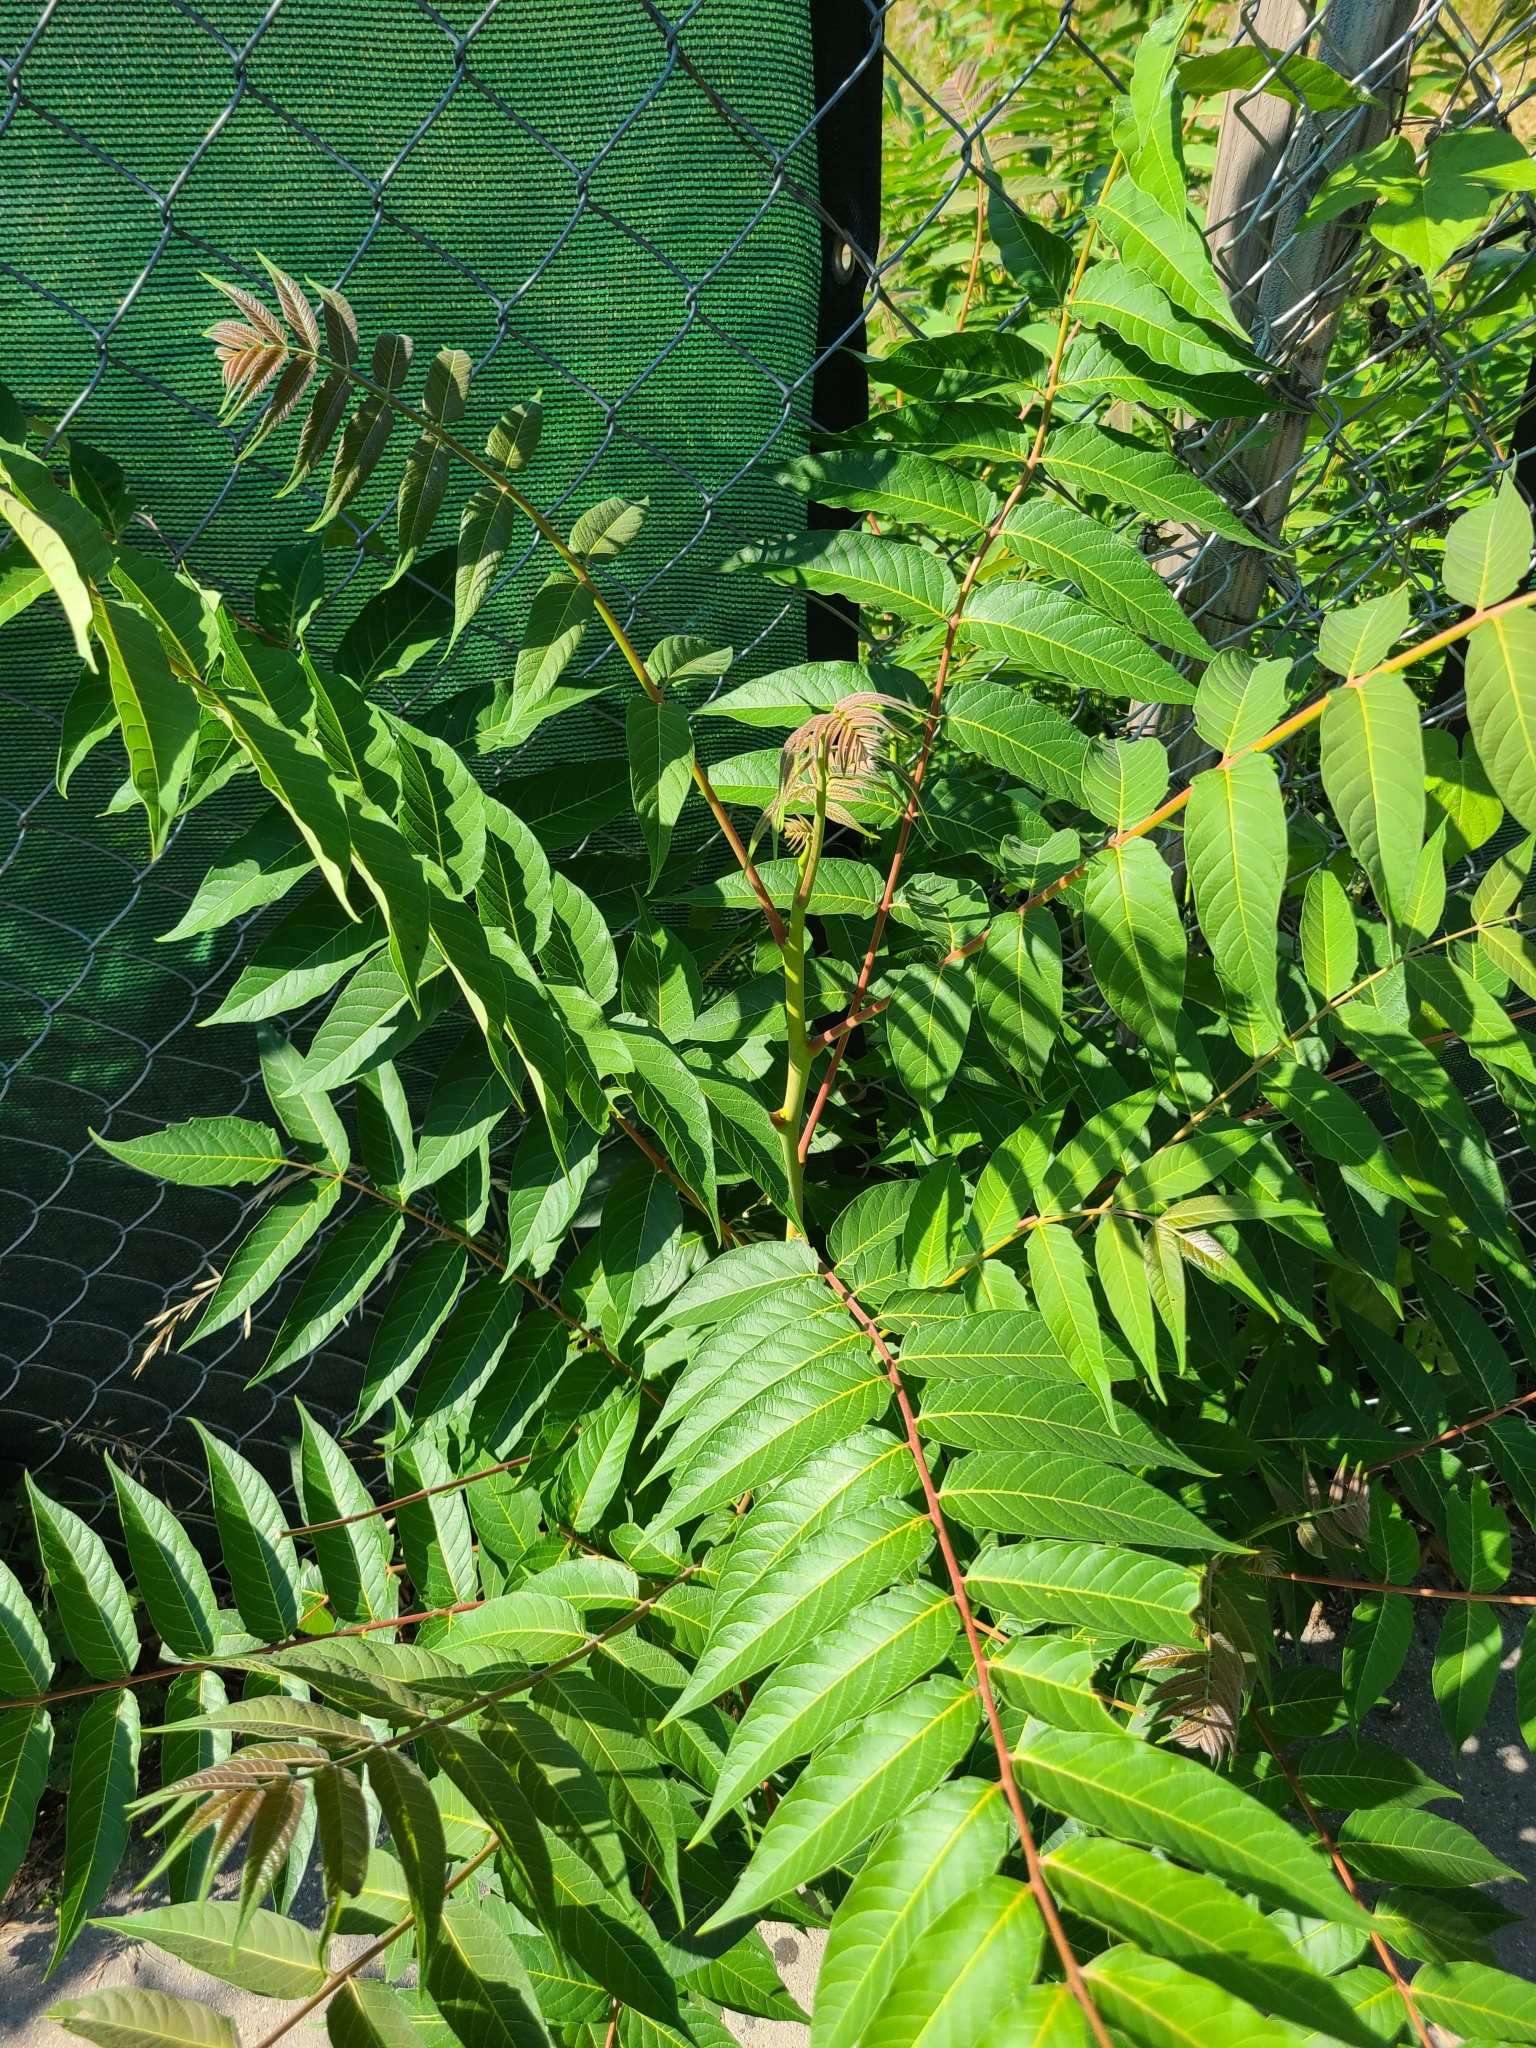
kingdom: Plantae
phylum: Tracheophyta
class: Magnoliopsida
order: Sapindales
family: Simaroubaceae
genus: Ailanthus
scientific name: Ailanthus altissima
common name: Tree-of-heaven
